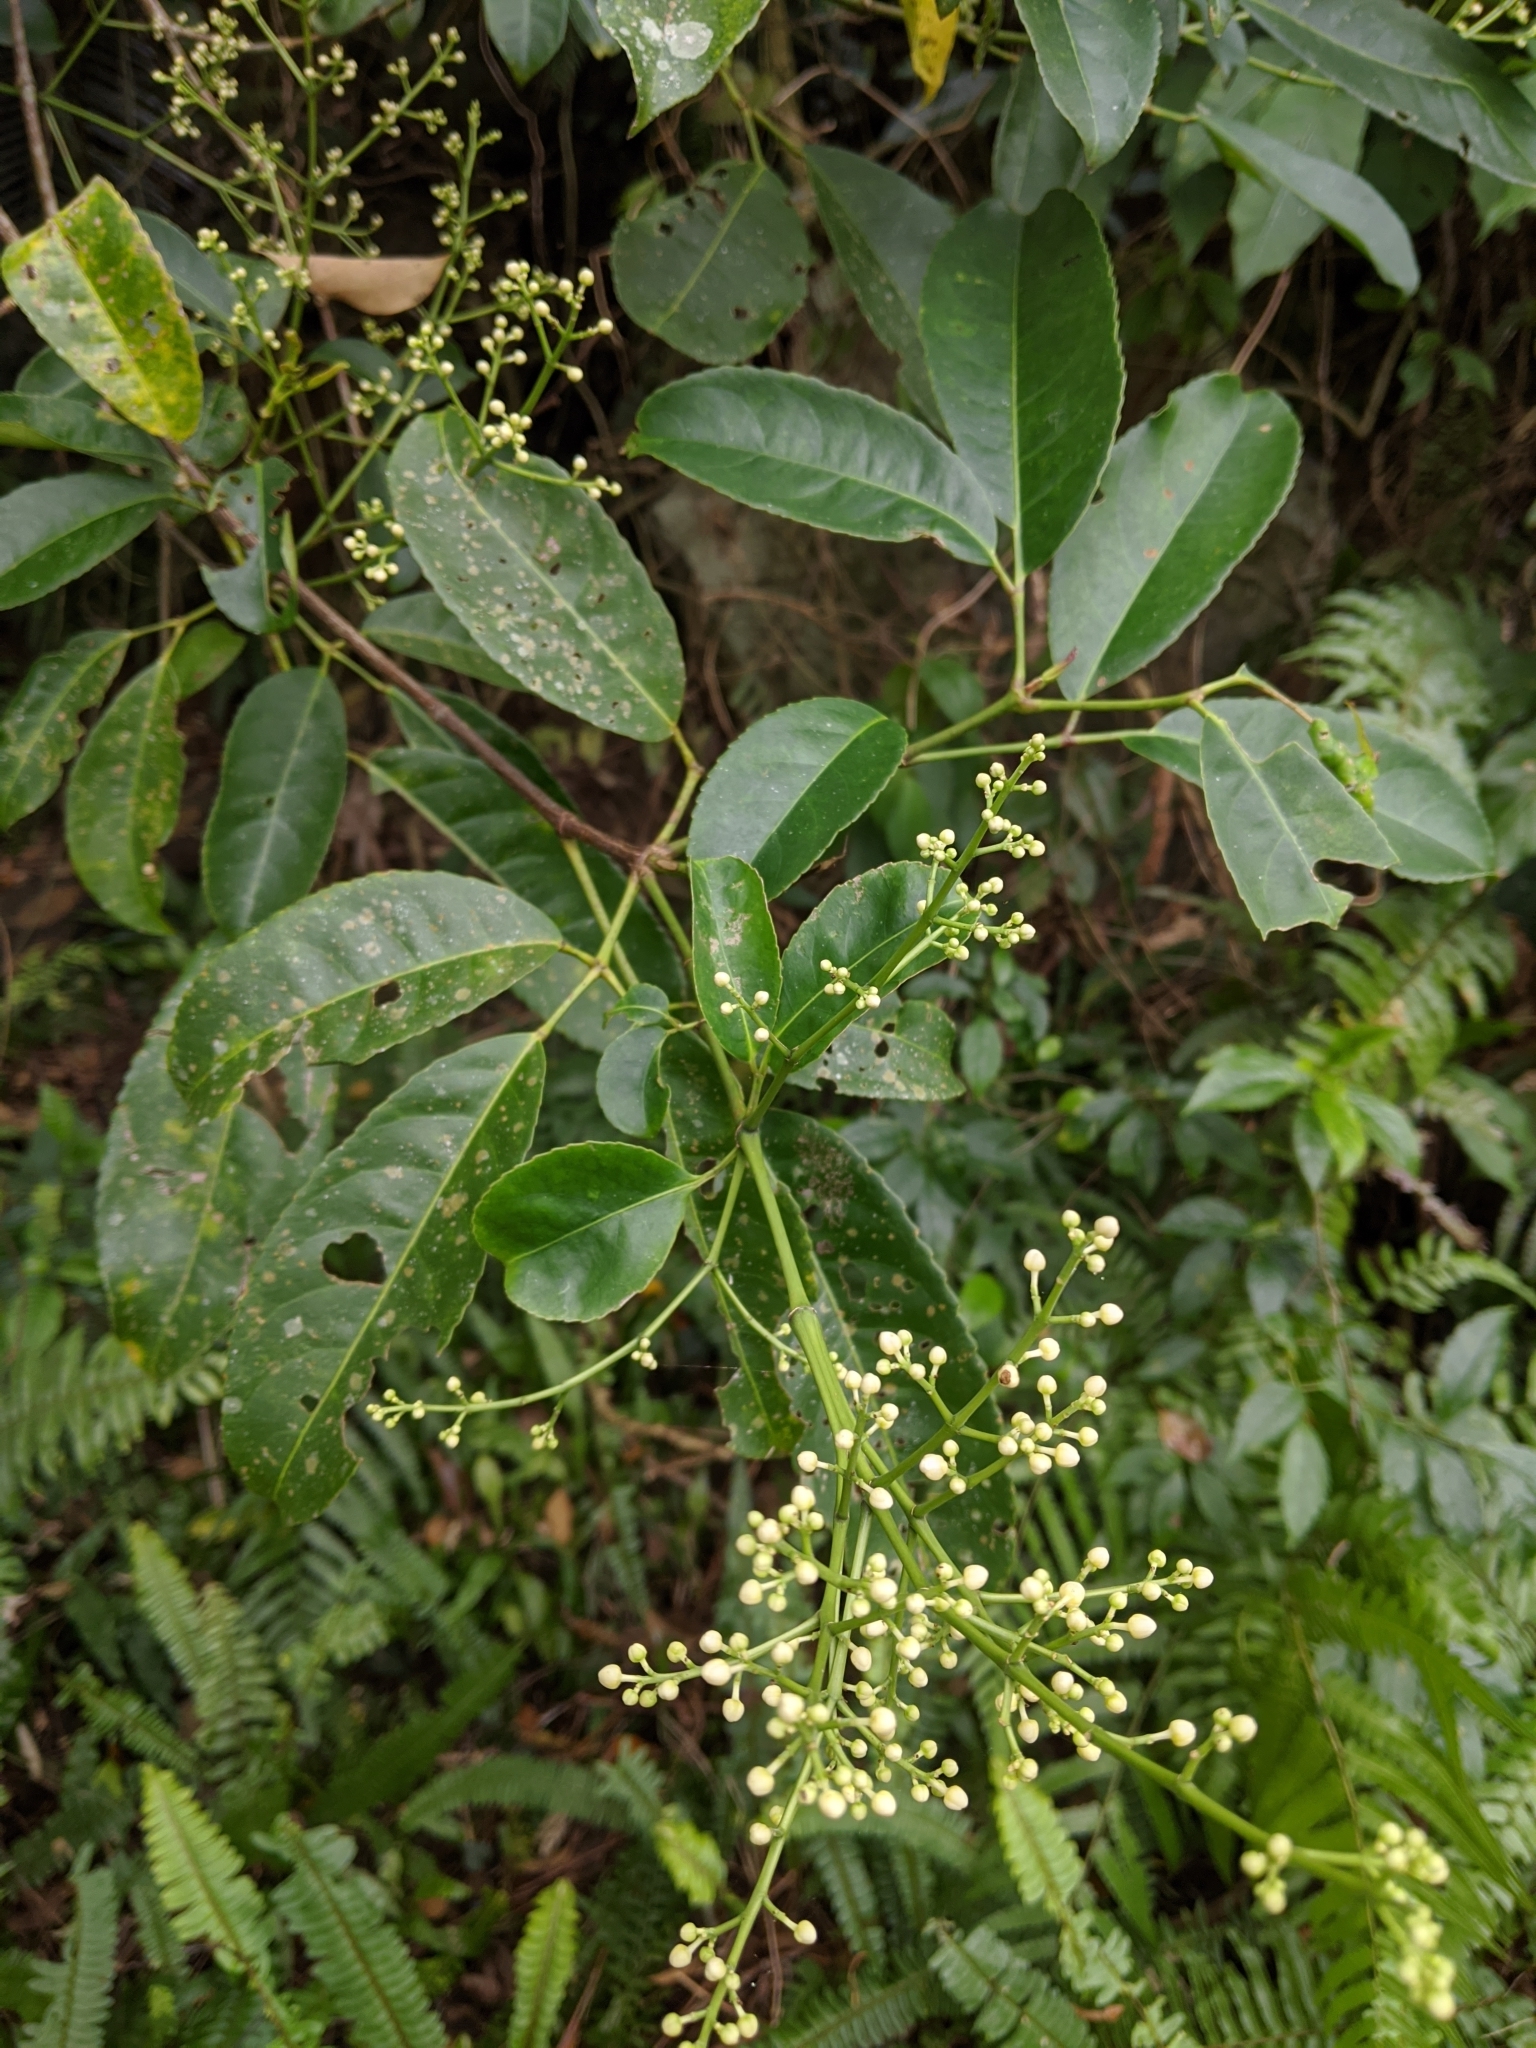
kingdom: Plantae
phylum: Tracheophyta
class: Magnoliopsida
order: Crossosomatales
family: Staphyleaceae
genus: Turpinia
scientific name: Turpinia ternata
